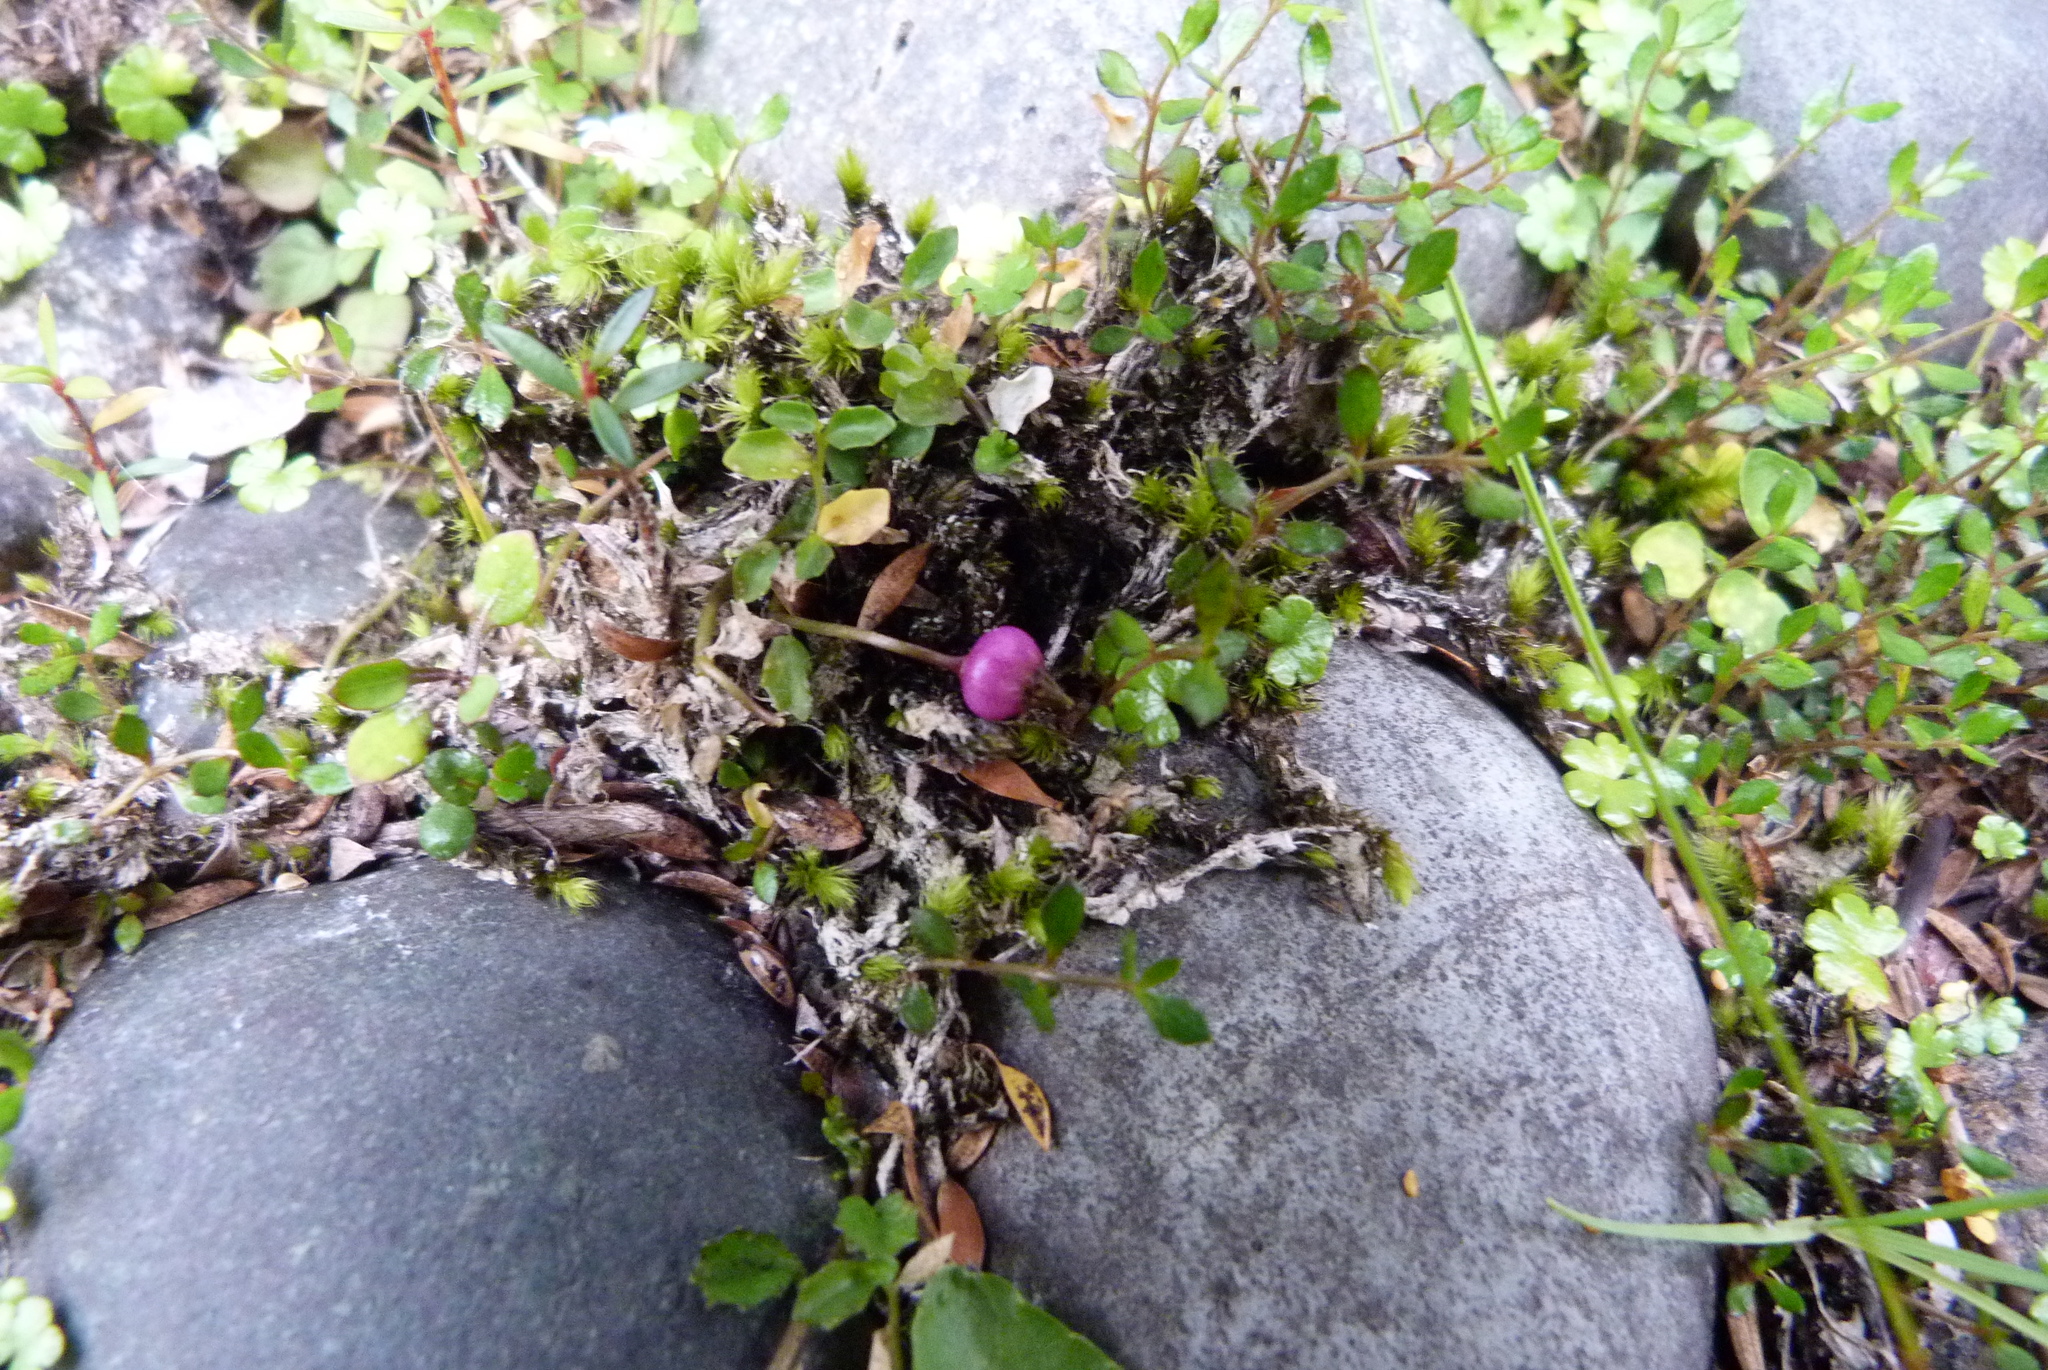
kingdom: Plantae
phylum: Tracheophyta
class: Magnoliopsida
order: Asterales
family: Campanulaceae
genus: Lobelia
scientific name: Lobelia angulata
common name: Lawn lobelia
